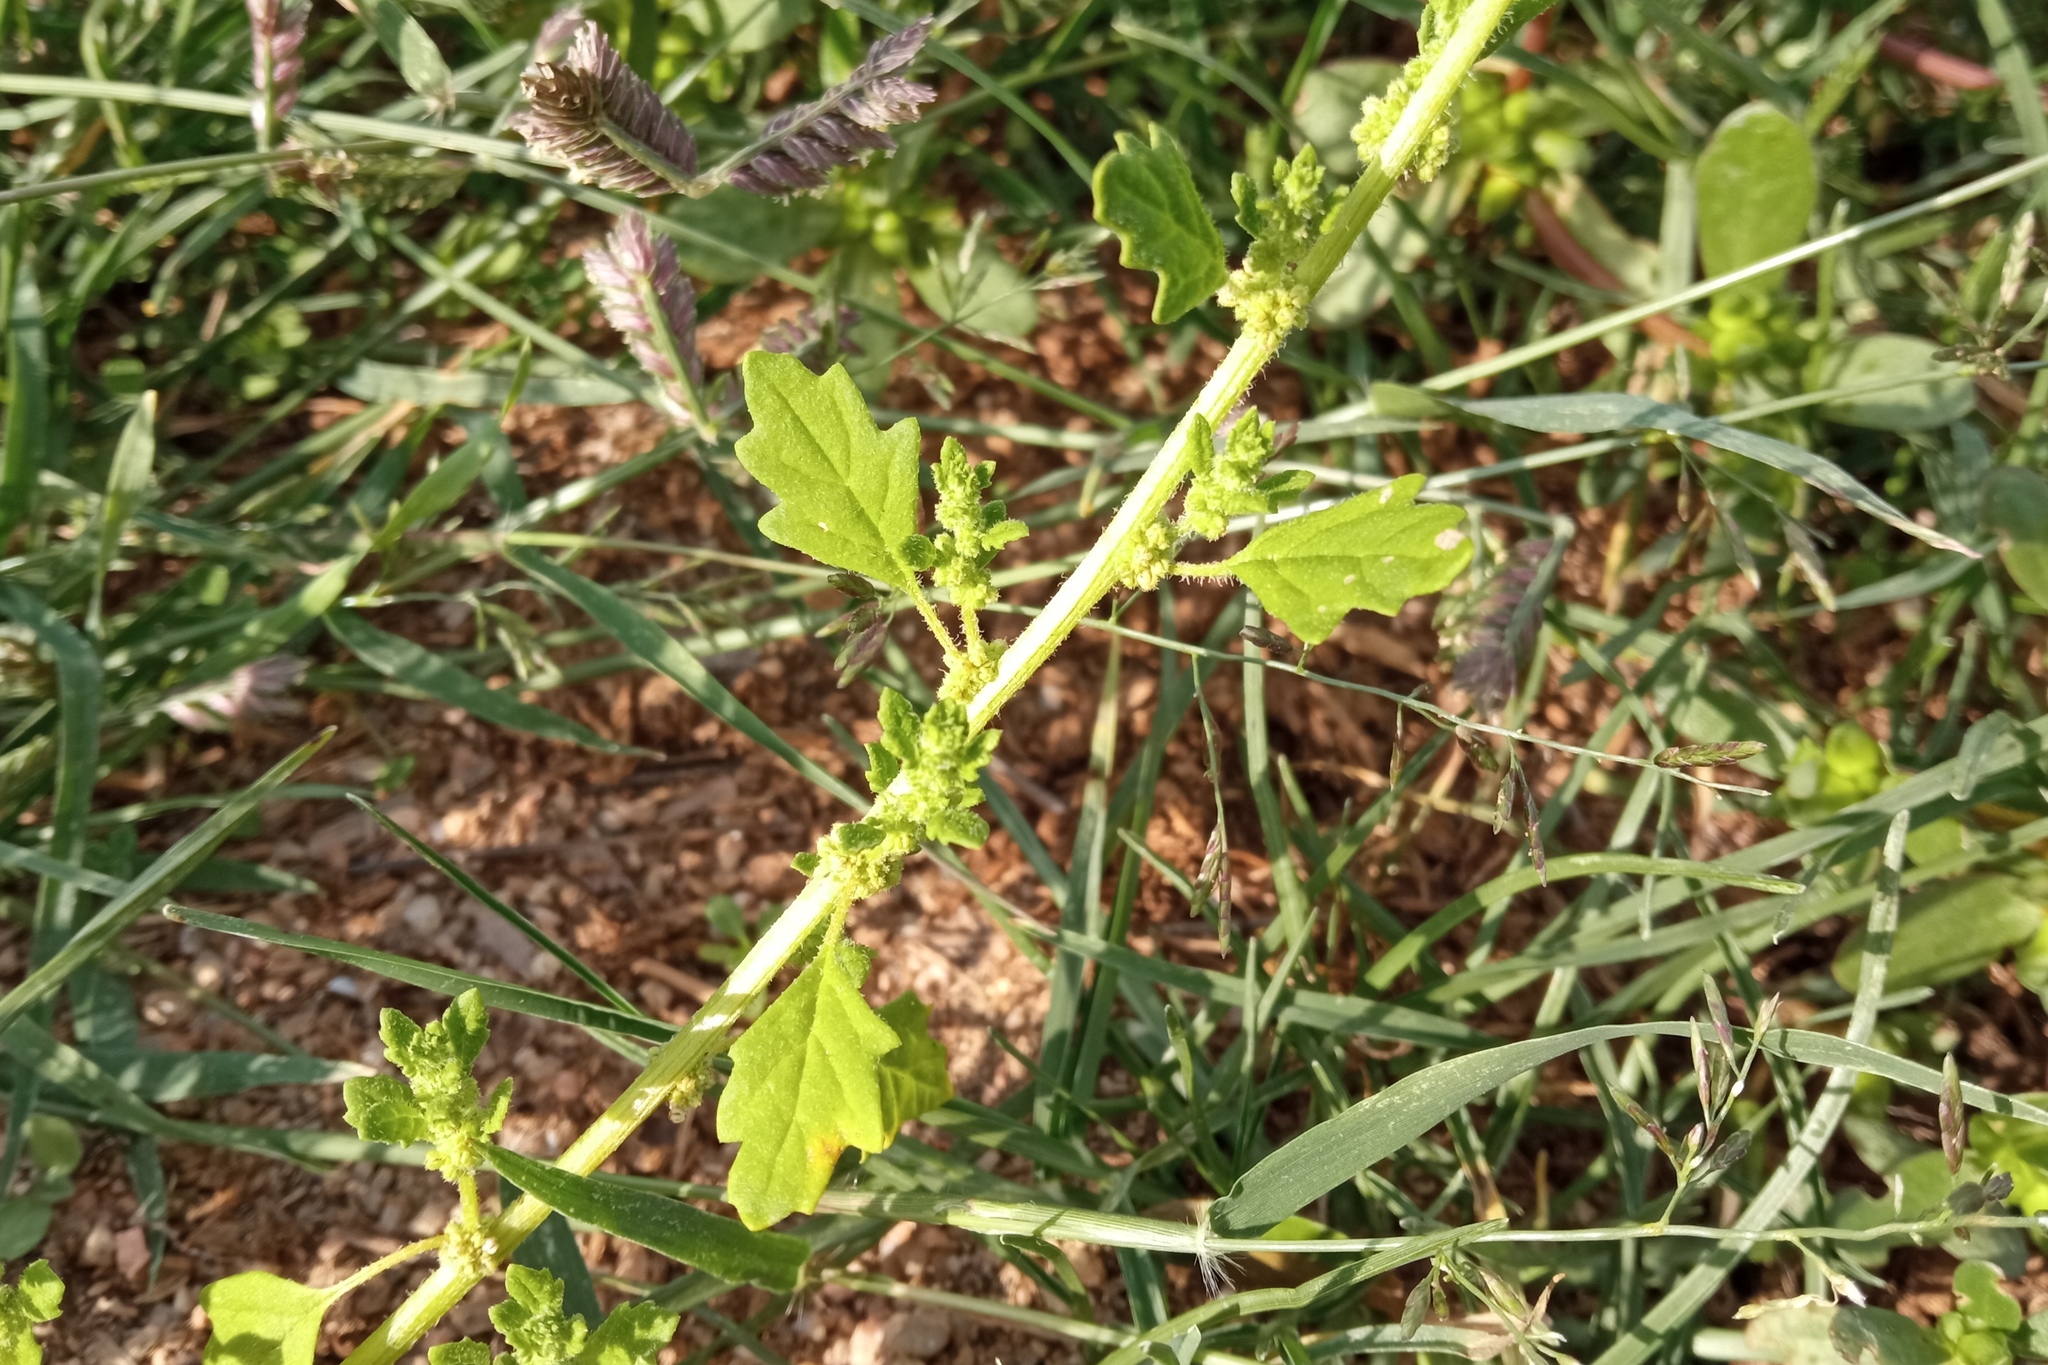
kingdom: Plantae
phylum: Tracheophyta
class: Magnoliopsida
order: Caryophyllales
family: Amaranthaceae
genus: Dysphania
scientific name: Dysphania pumilio
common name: Clammy goosefoot
